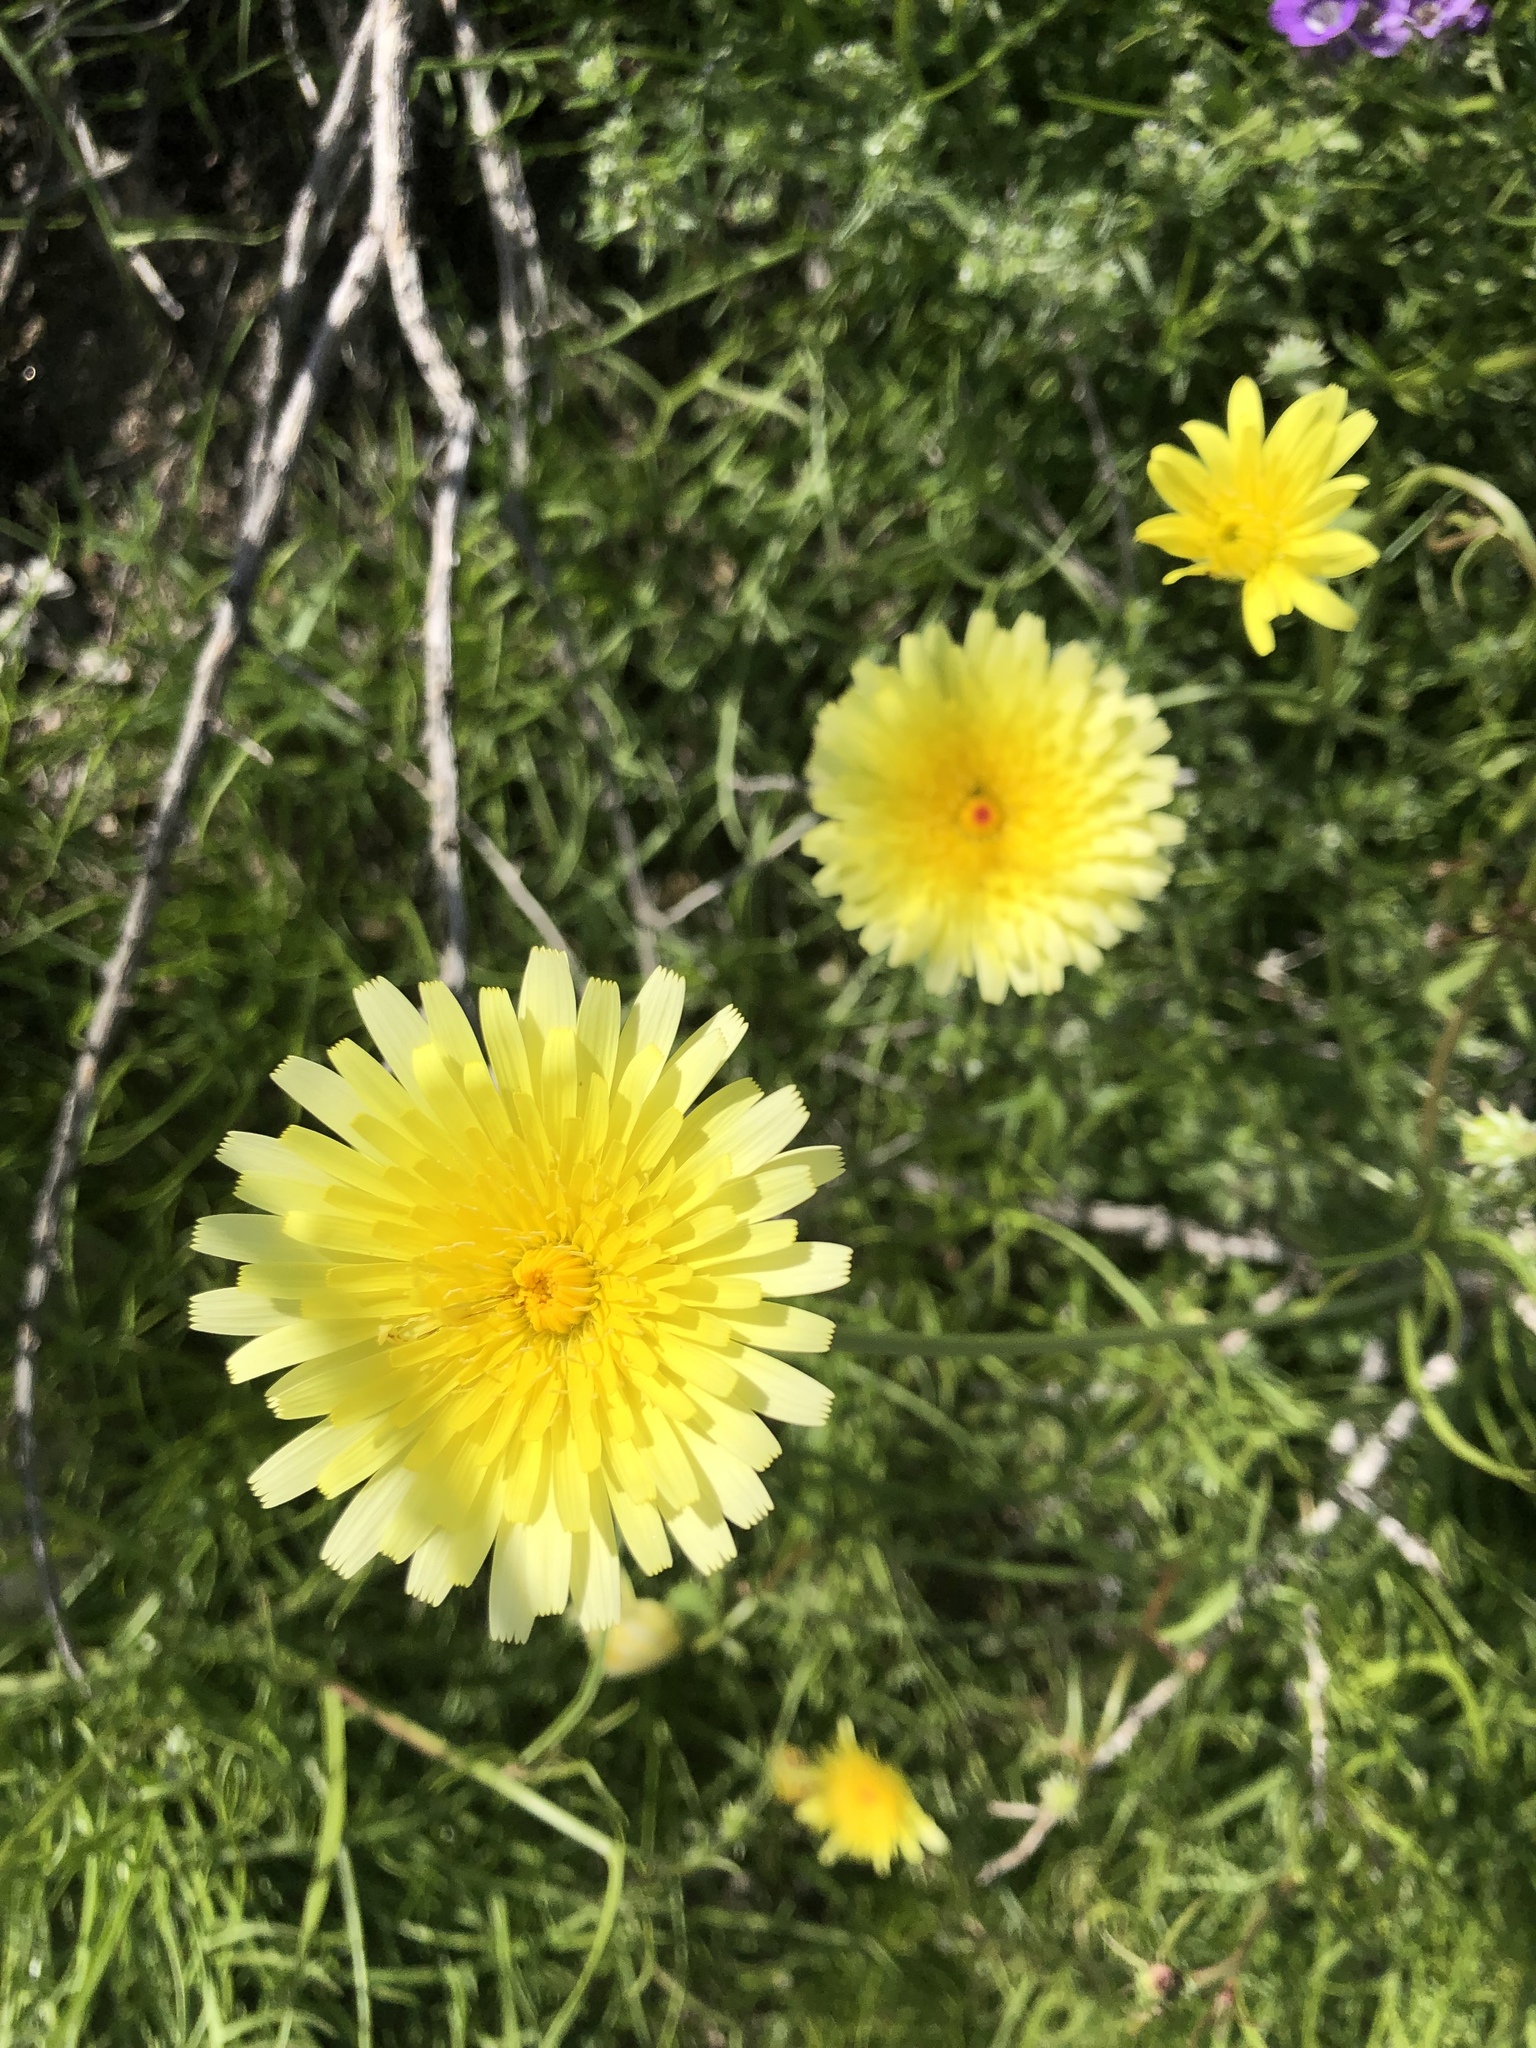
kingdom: Plantae
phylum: Tracheophyta
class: Magnoliopsida
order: Asterales
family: Asteraceae
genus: Malacothrix
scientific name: Malacothrix glabrata
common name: Smooth desert-dandelion
